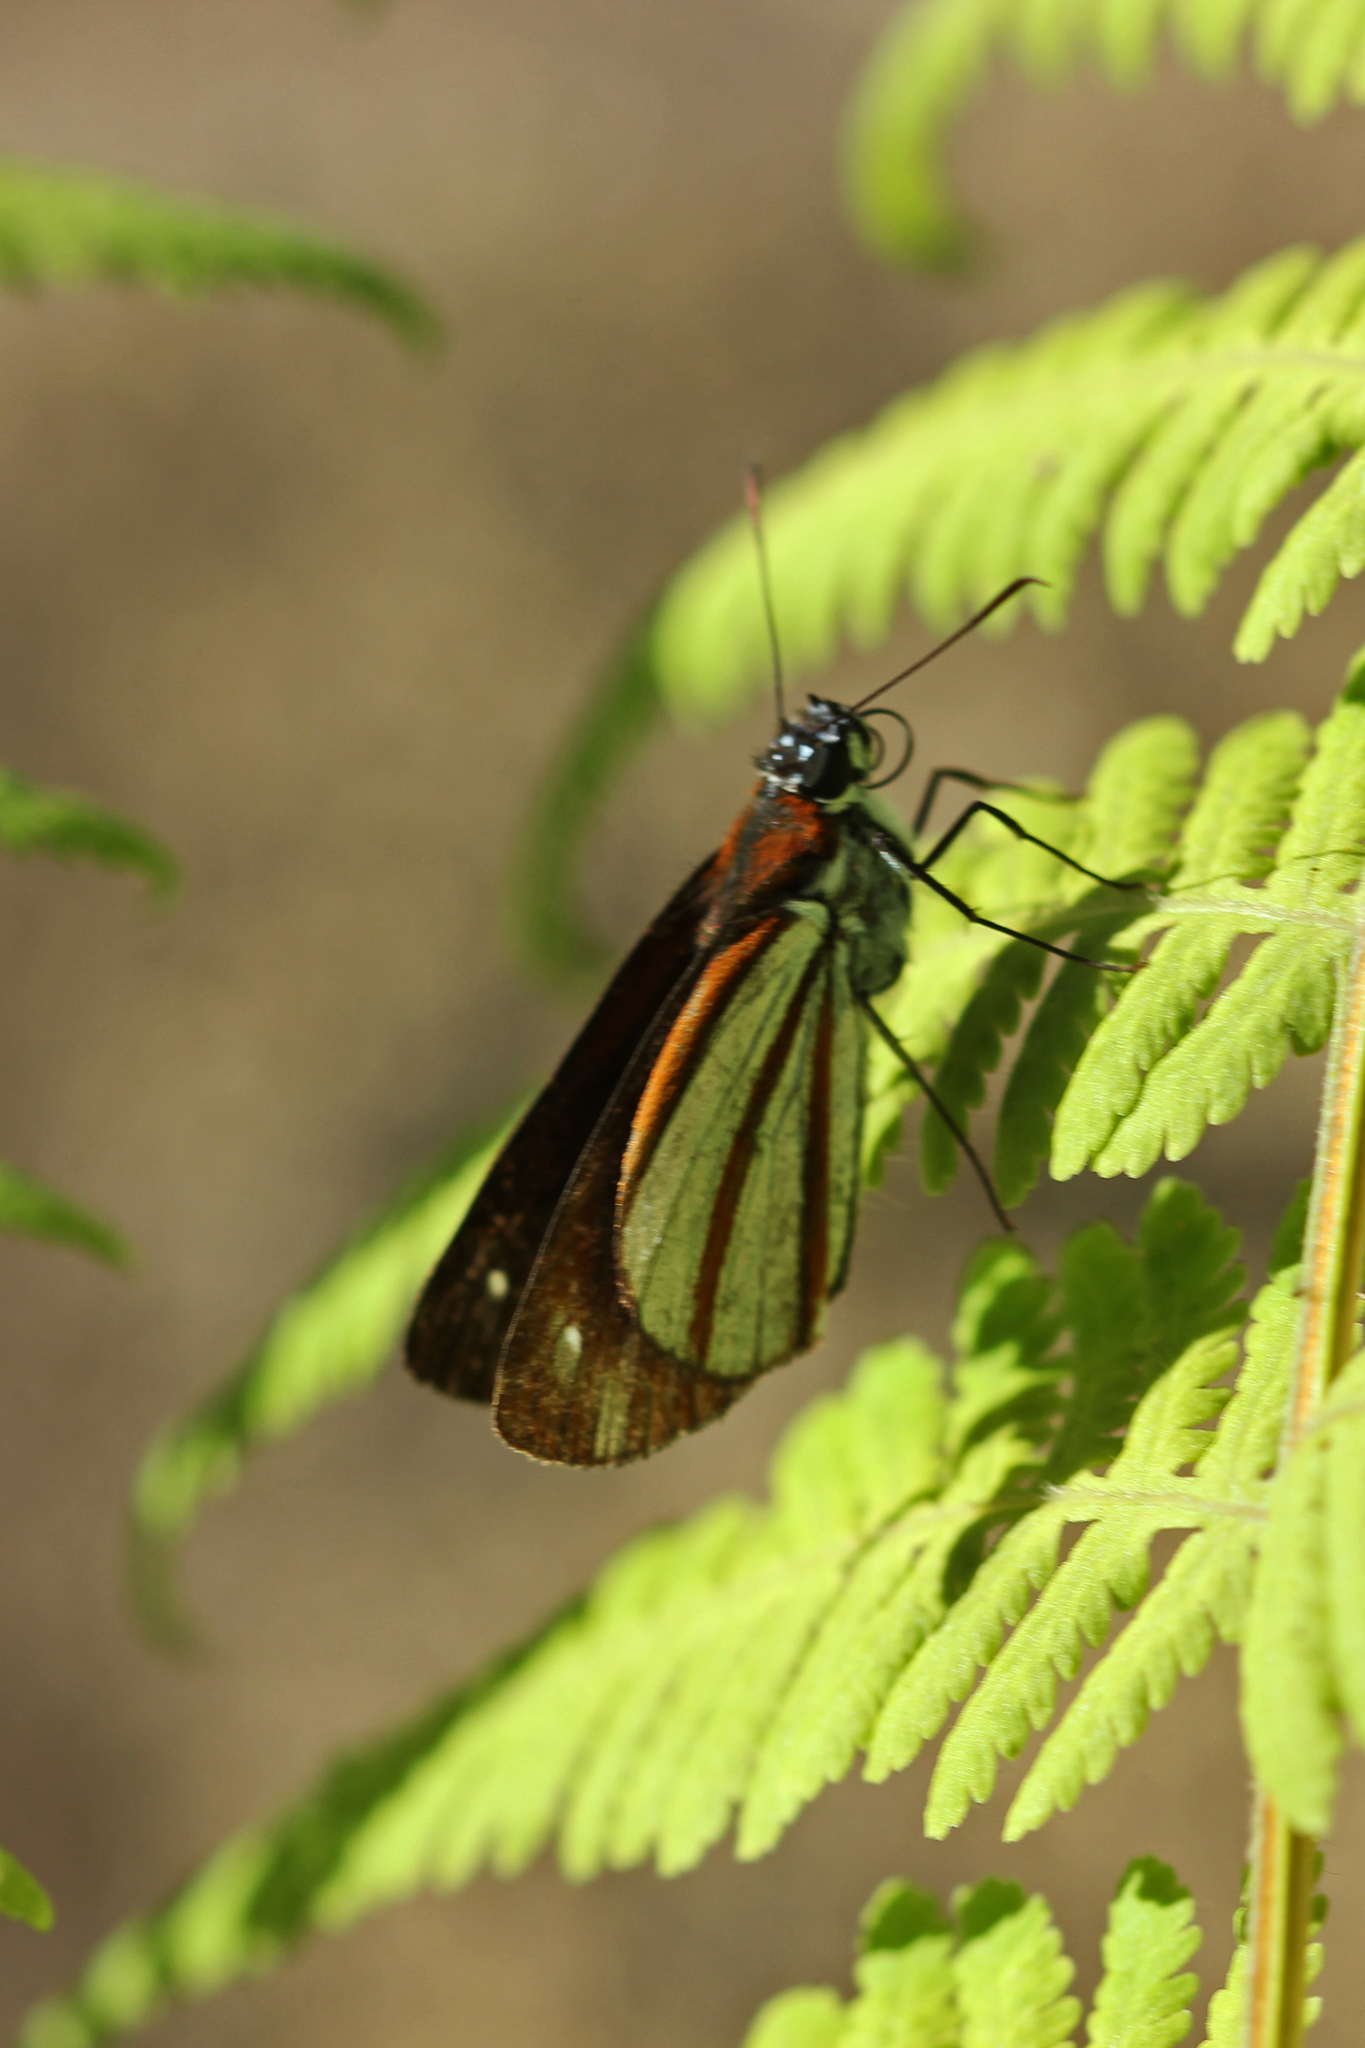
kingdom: Animalia
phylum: Arthropoda
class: Insecta
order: Lepidoptera
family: Hesperiidae
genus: Corra
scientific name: Corra
